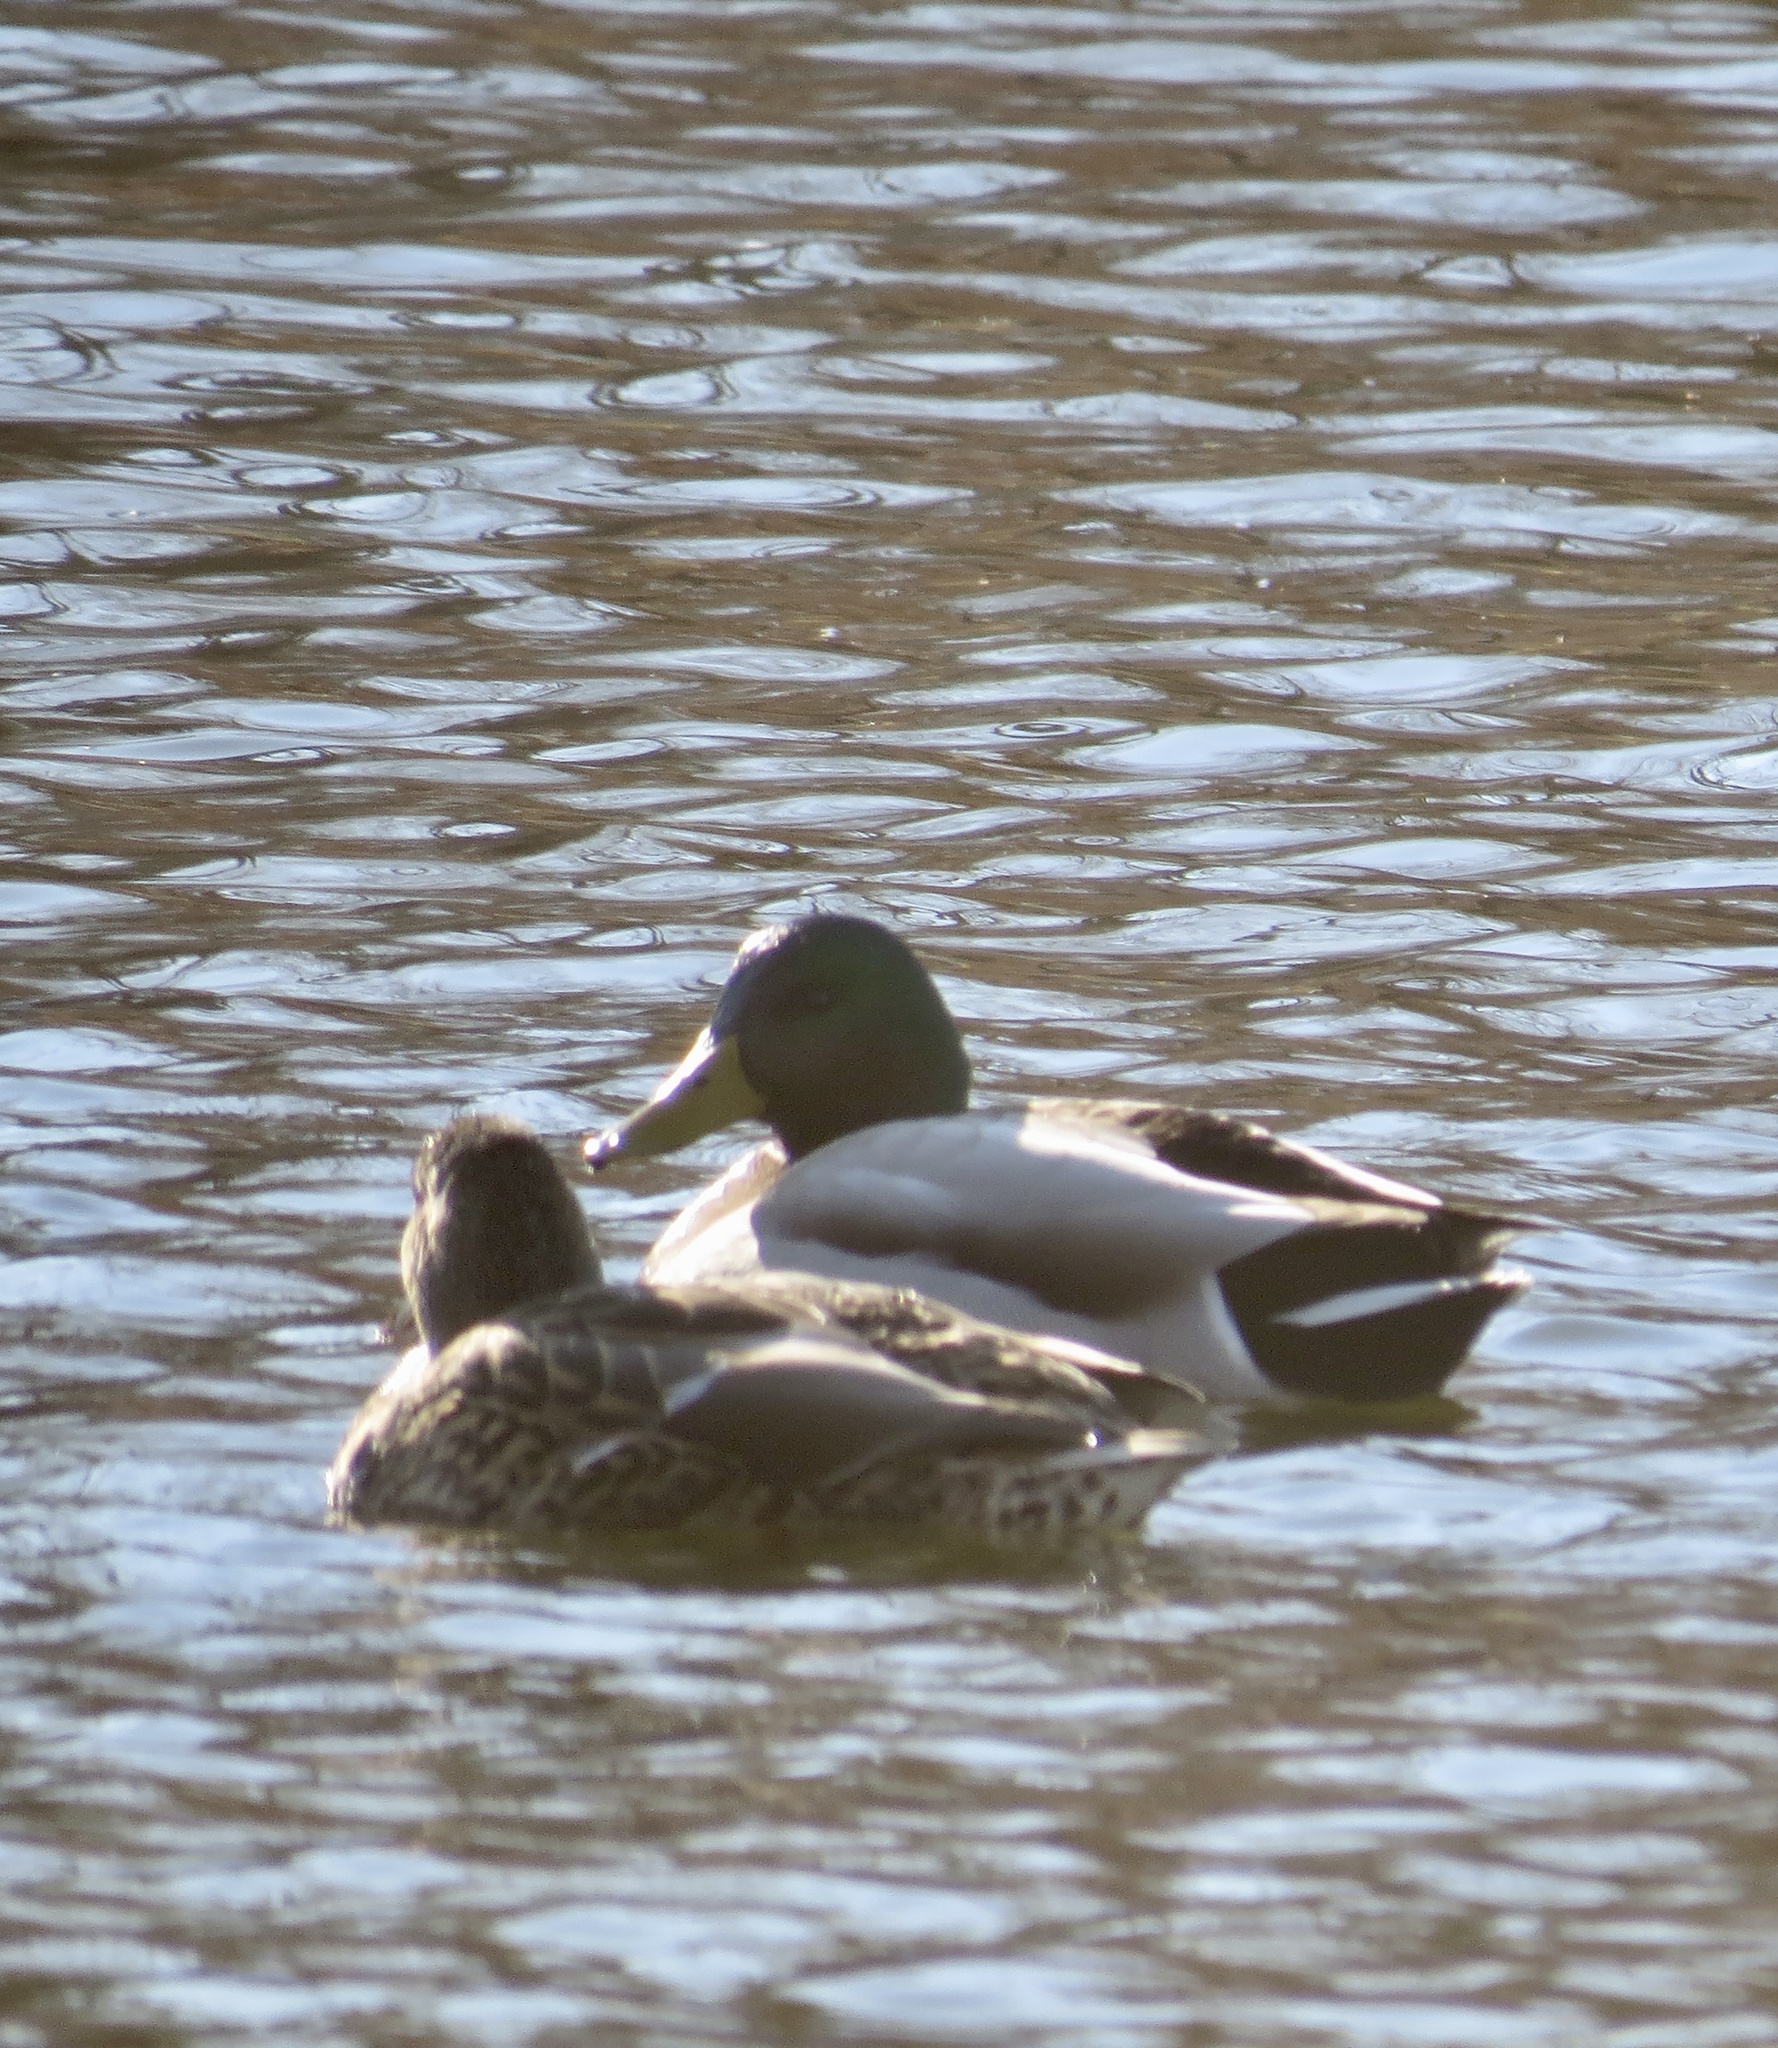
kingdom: Animalia
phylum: Chordata
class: Aves
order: Anseriformes
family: Anatidae
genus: Anas
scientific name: Anas platyrhynchos
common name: Mallard
